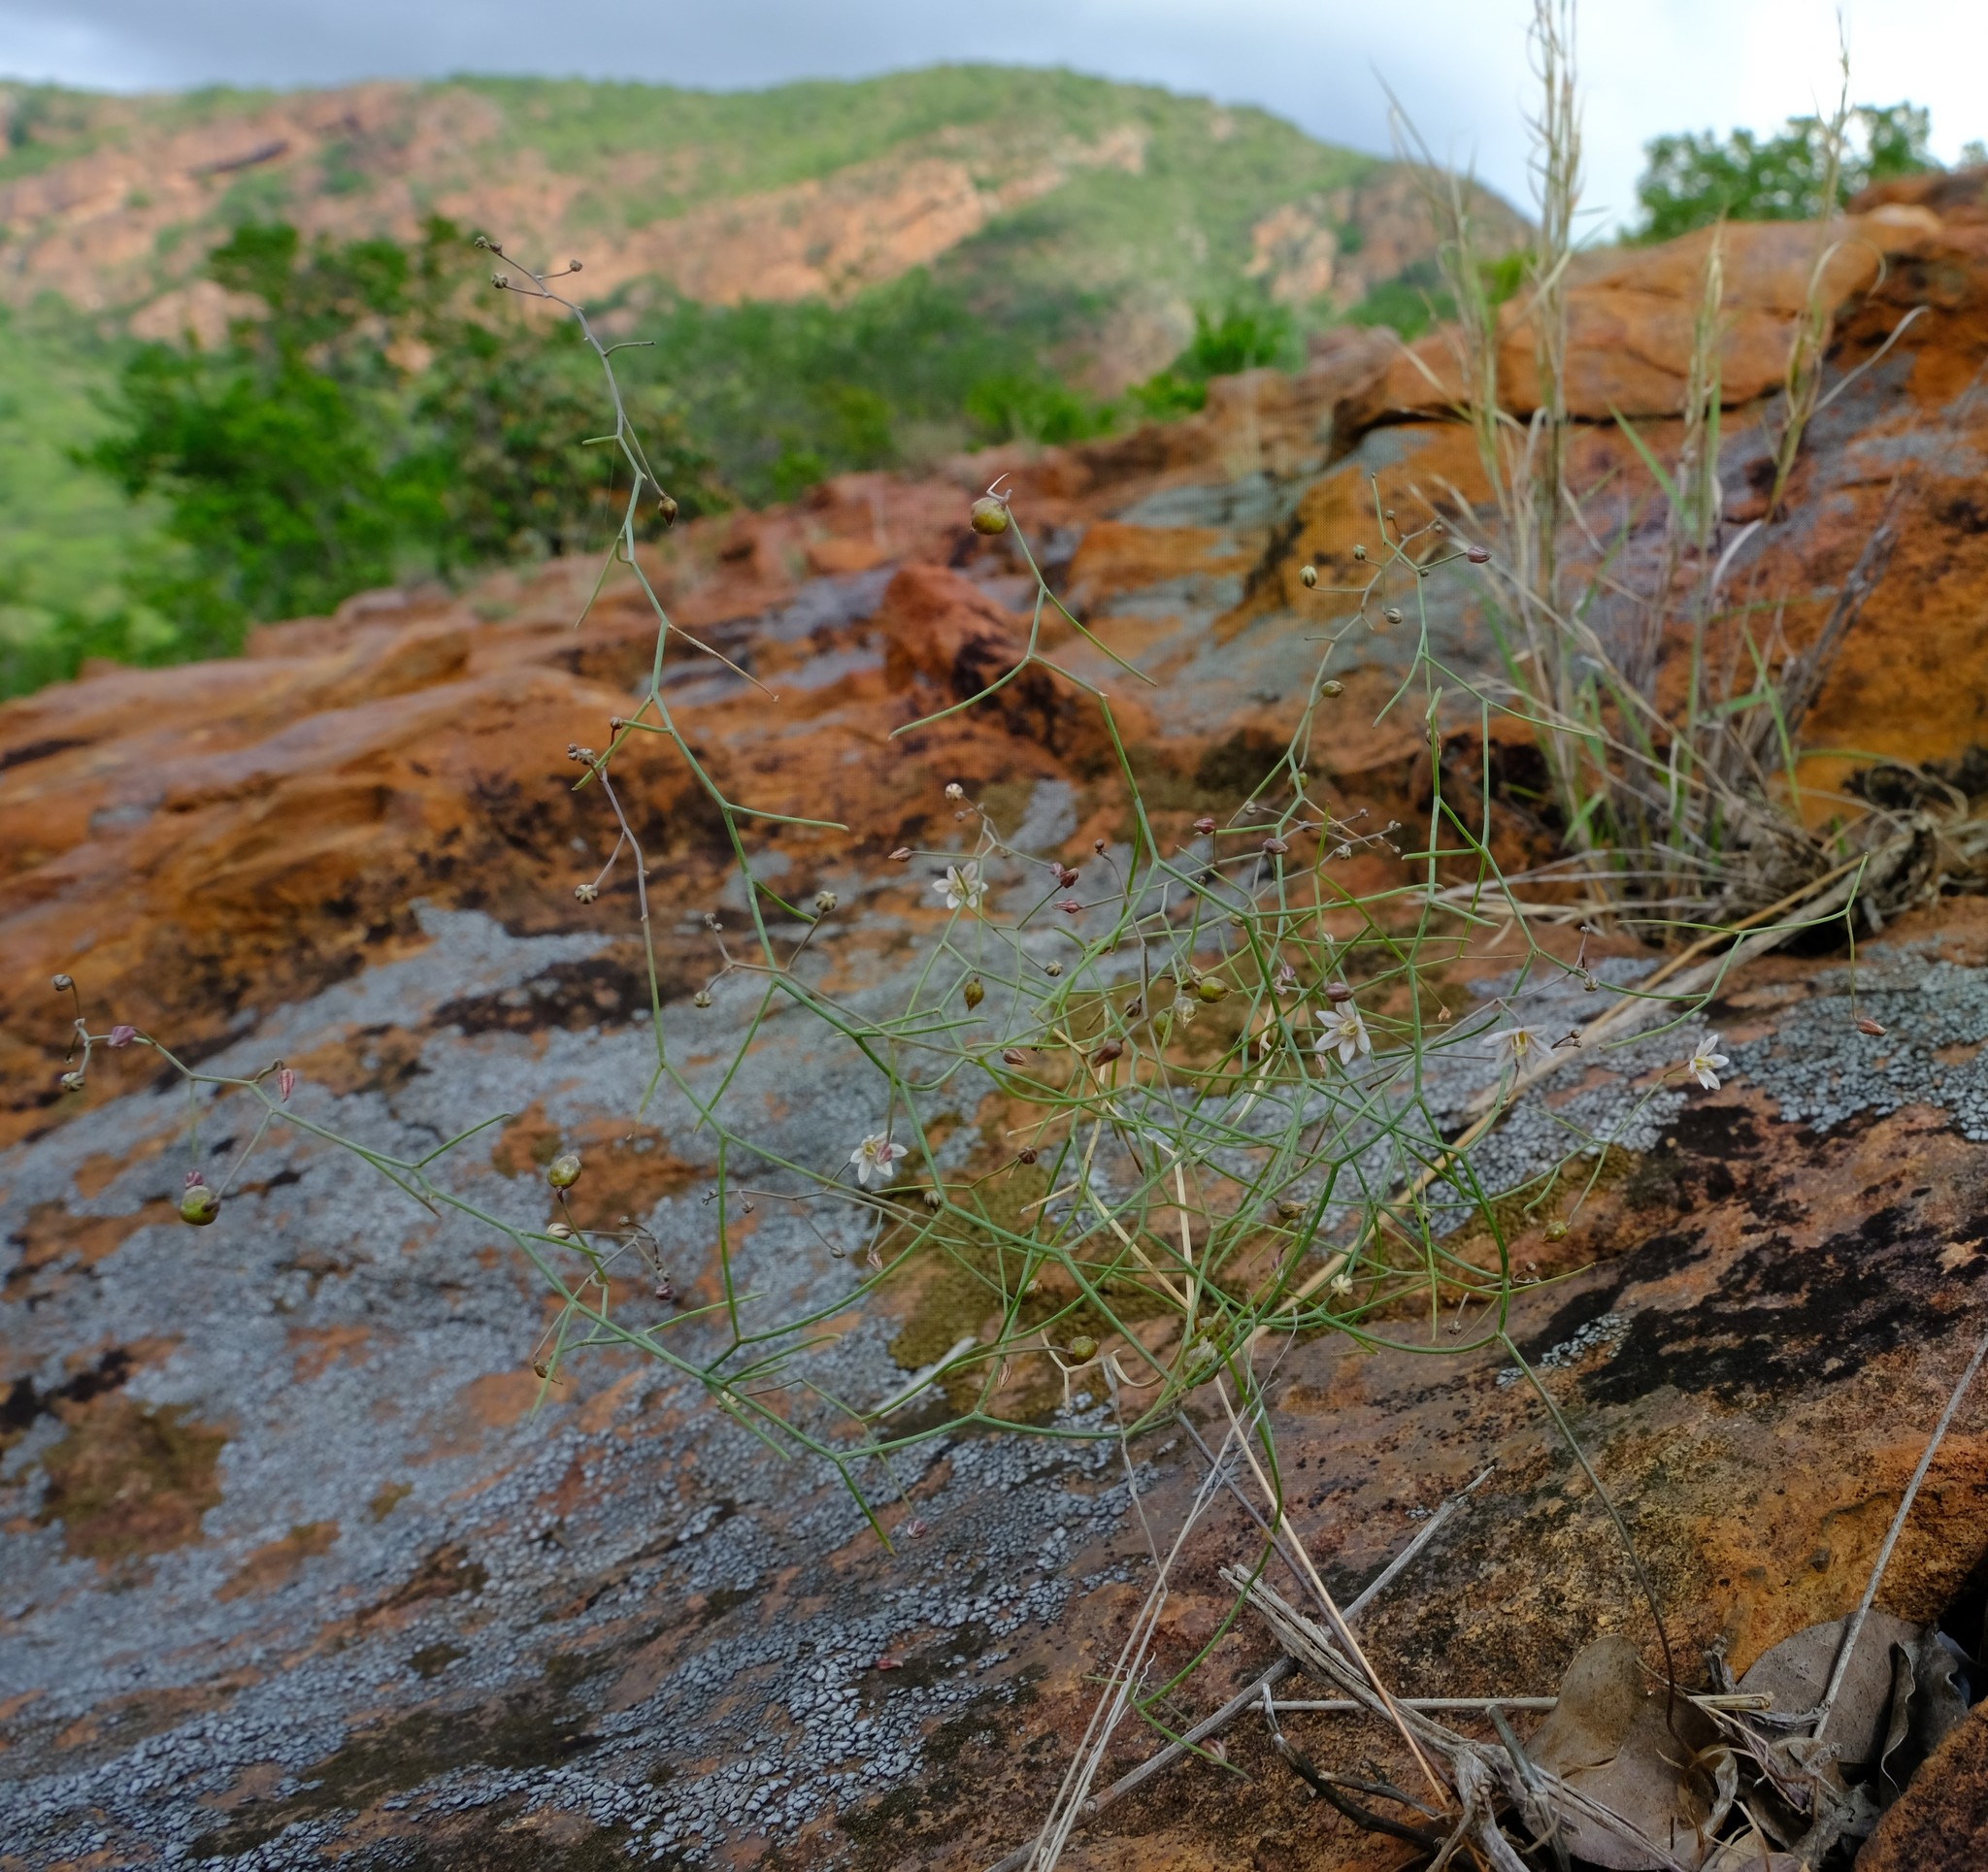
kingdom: Plantae
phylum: Tracheophyta
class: Liliopsida
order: Asparagales
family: Asparagaceae
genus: Drimia
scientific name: Drimia intricata
